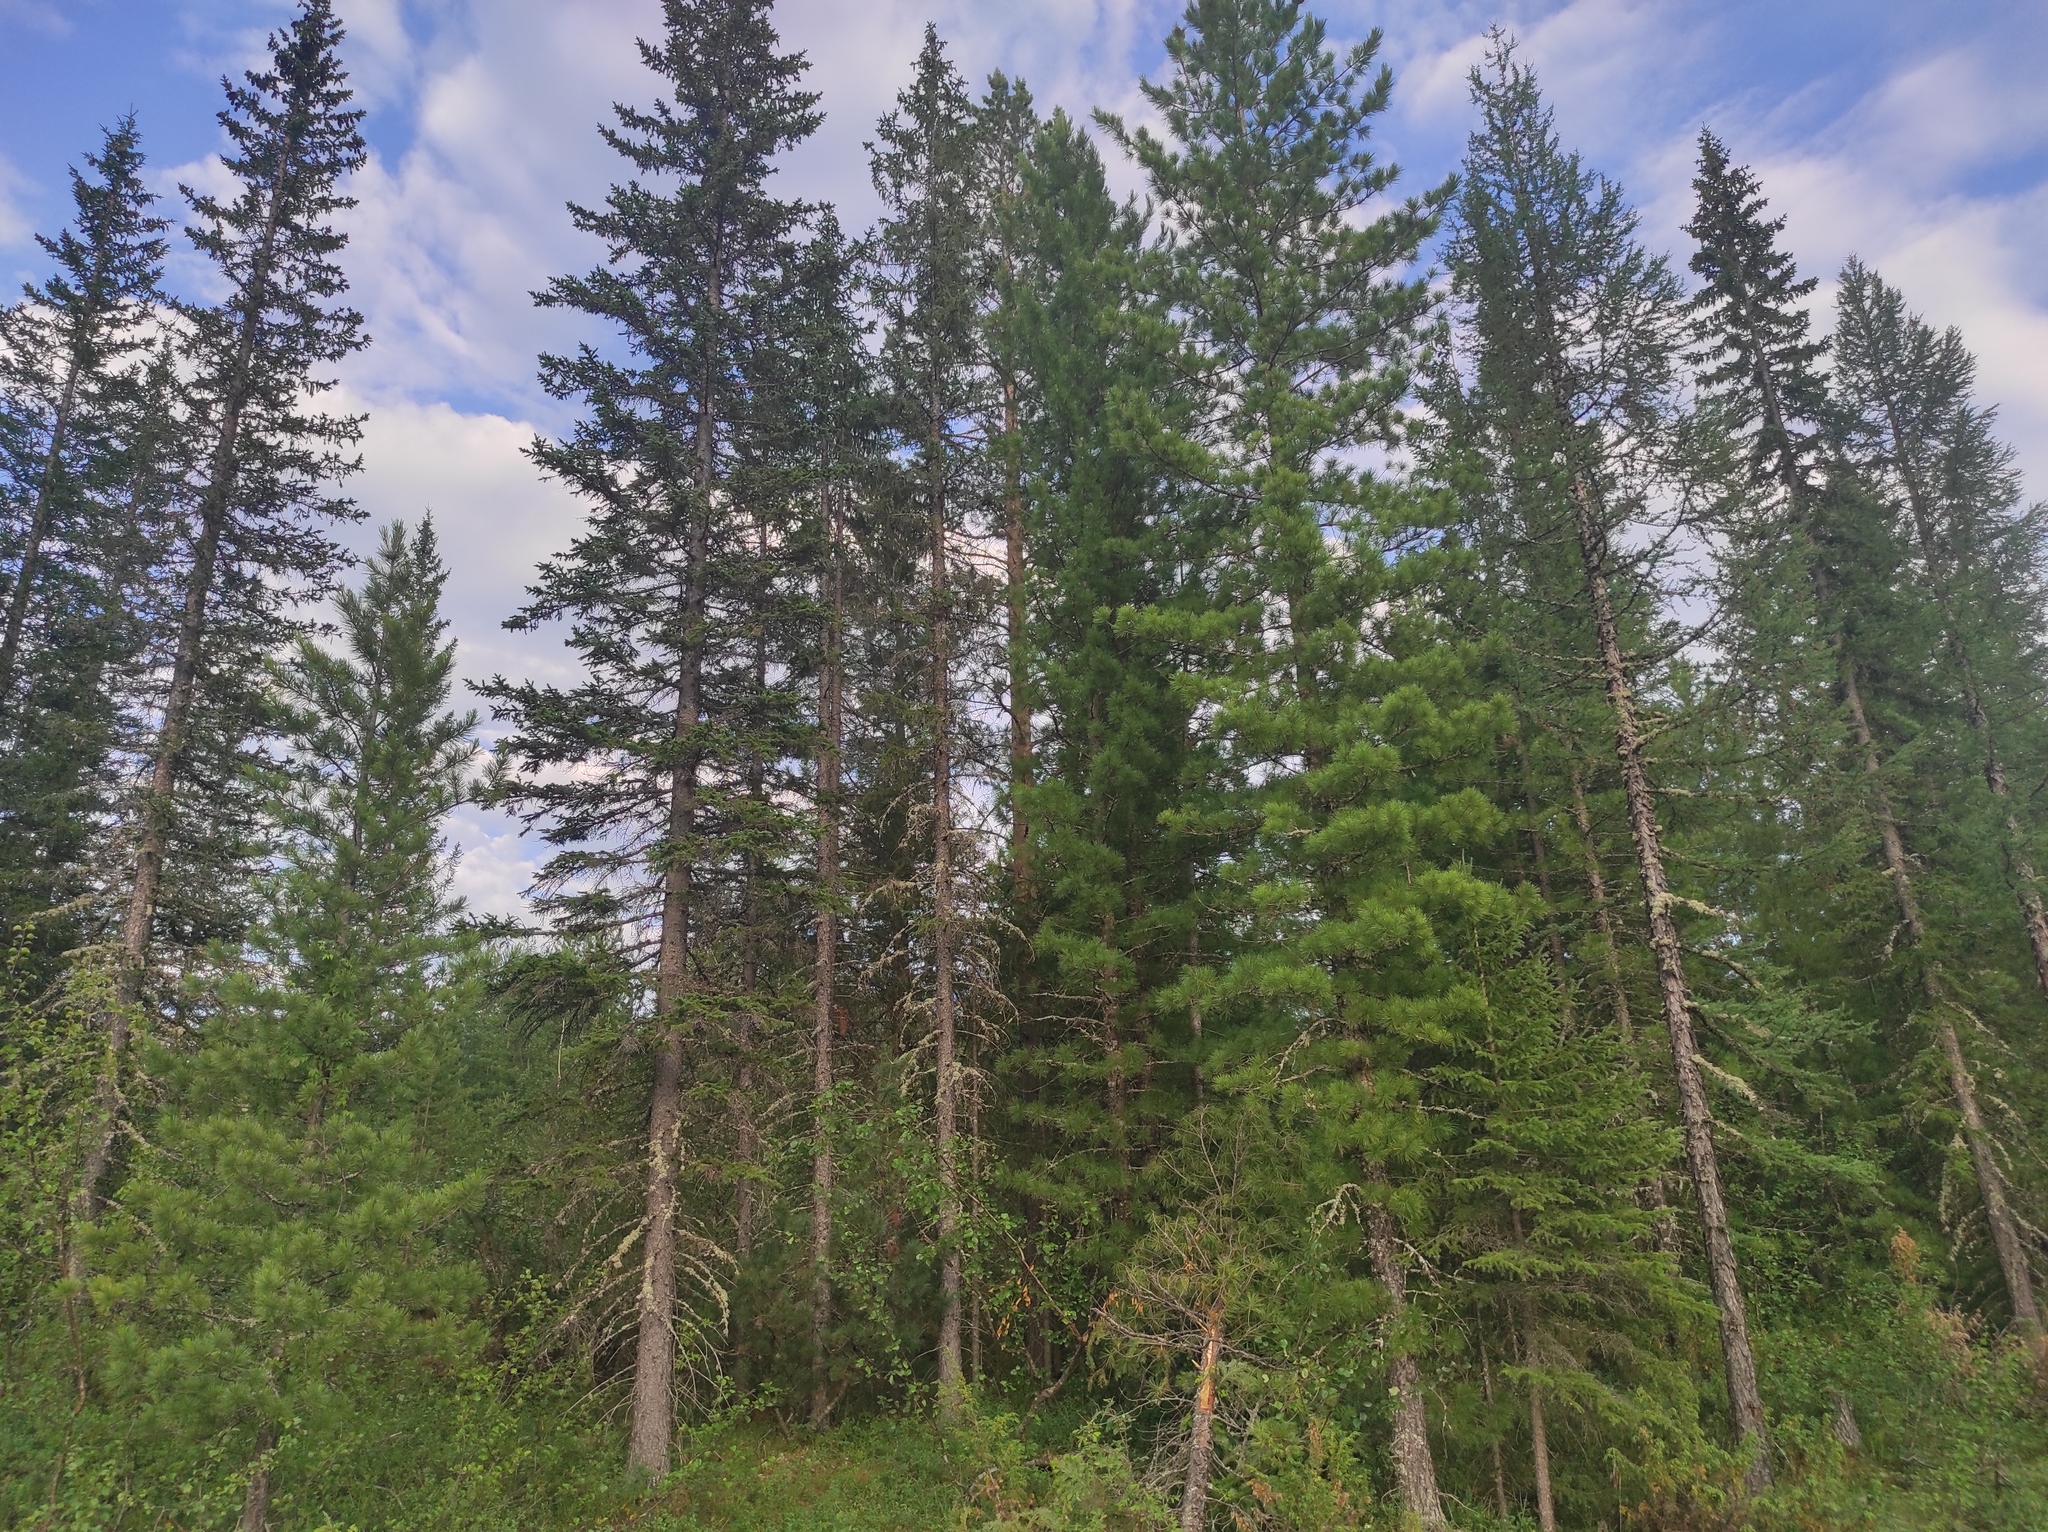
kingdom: Plantae
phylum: Tracheophyta
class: Pinopsida
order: Pinales
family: Pinaceae
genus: Picea
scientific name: Picea obovata
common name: Siberian spruce
